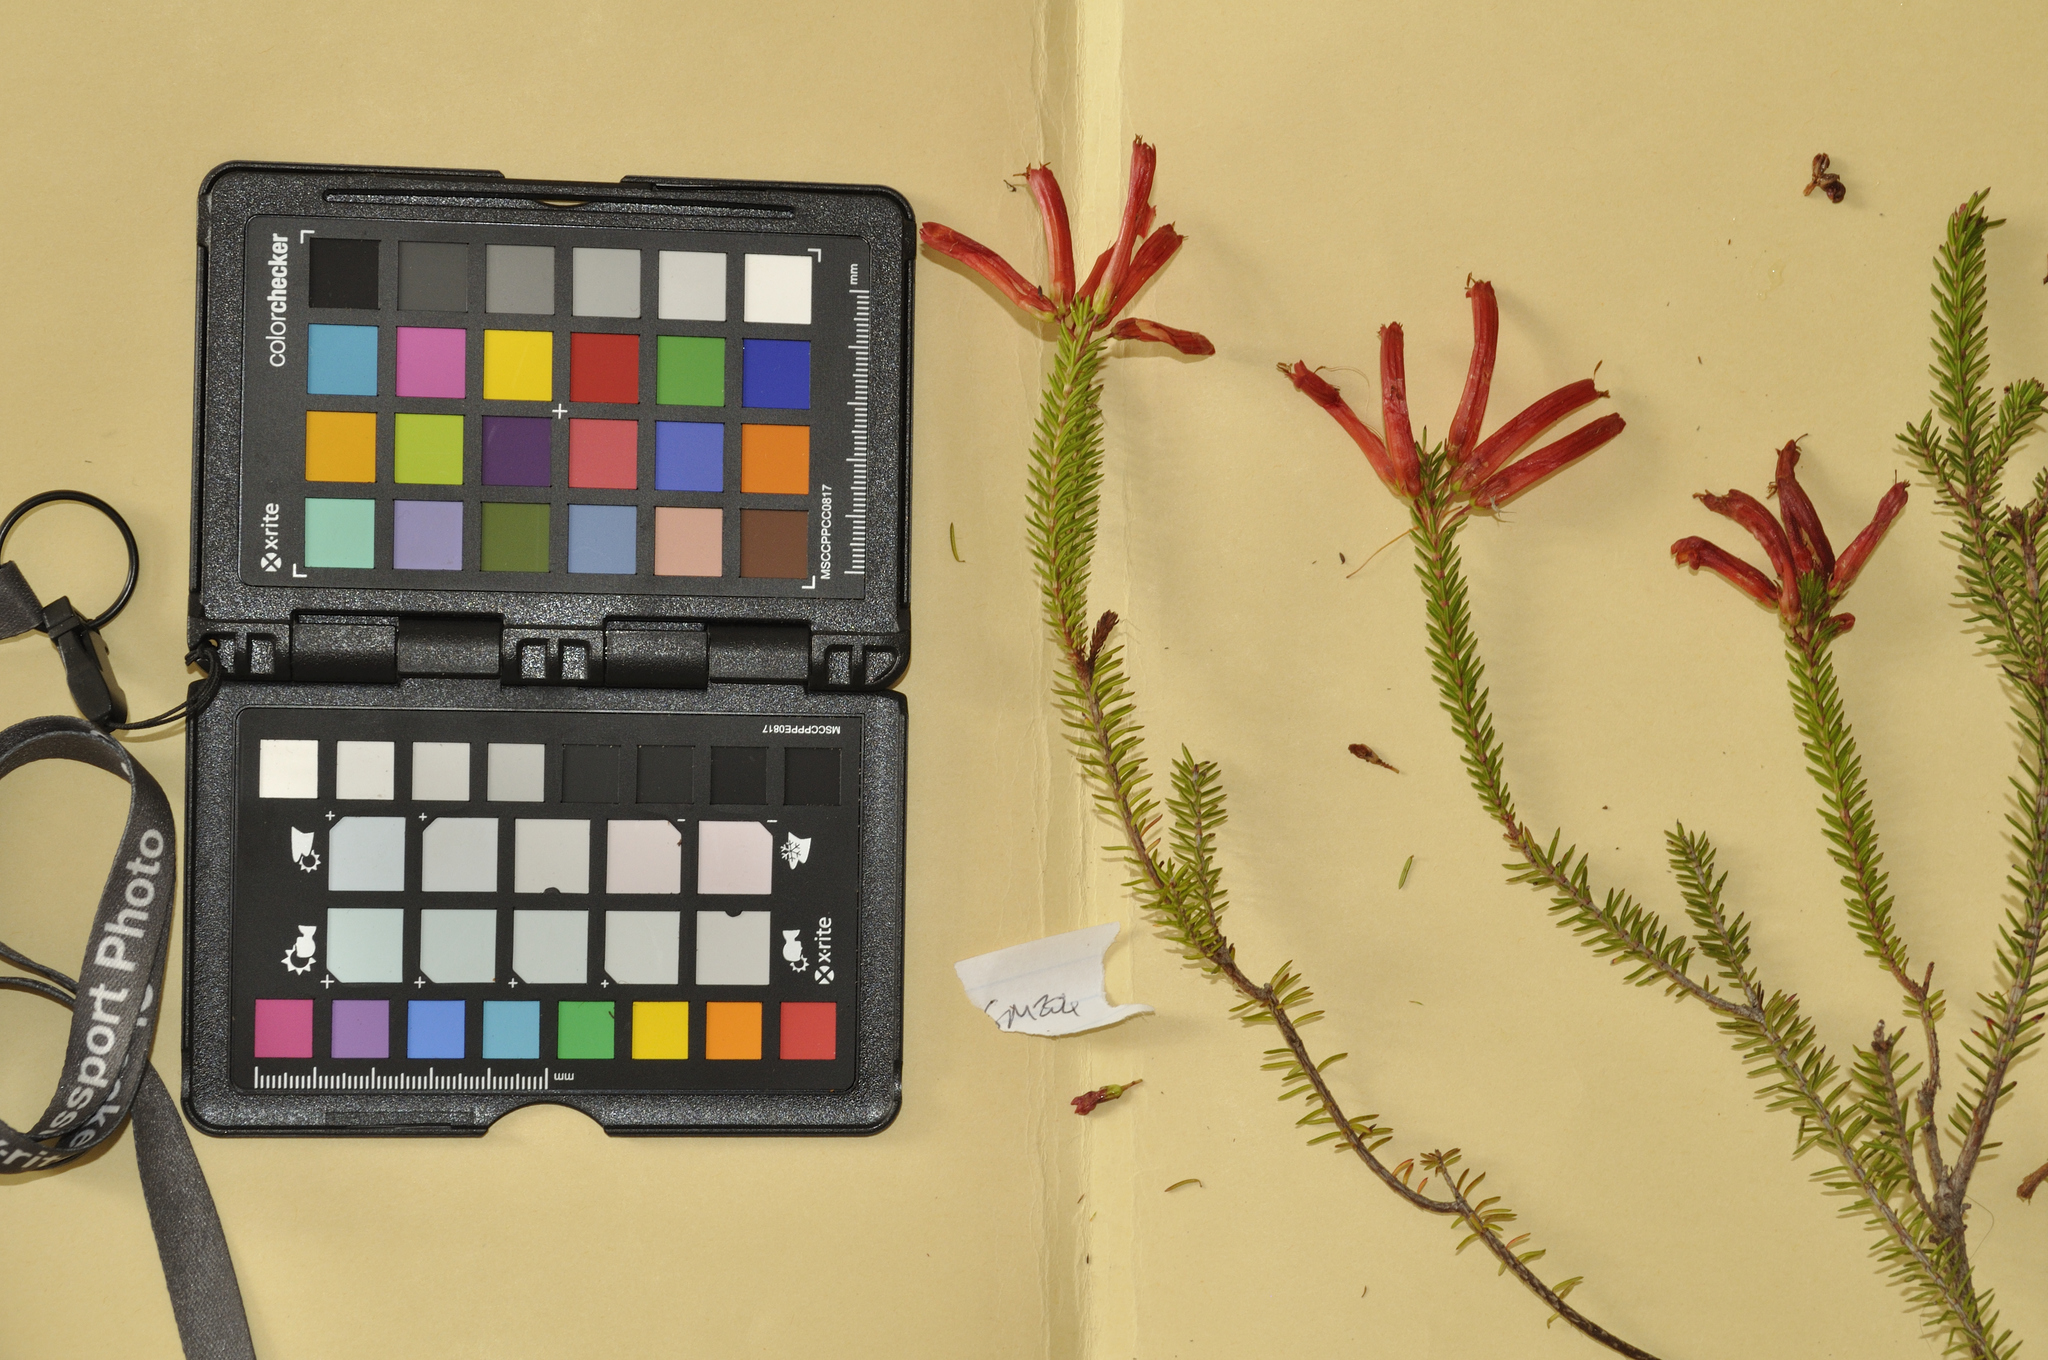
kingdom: Plantae
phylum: Tracheophyta
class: Magnoliopsida
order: Ericales
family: Ericaceae
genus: Erica
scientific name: Erica nevillei
